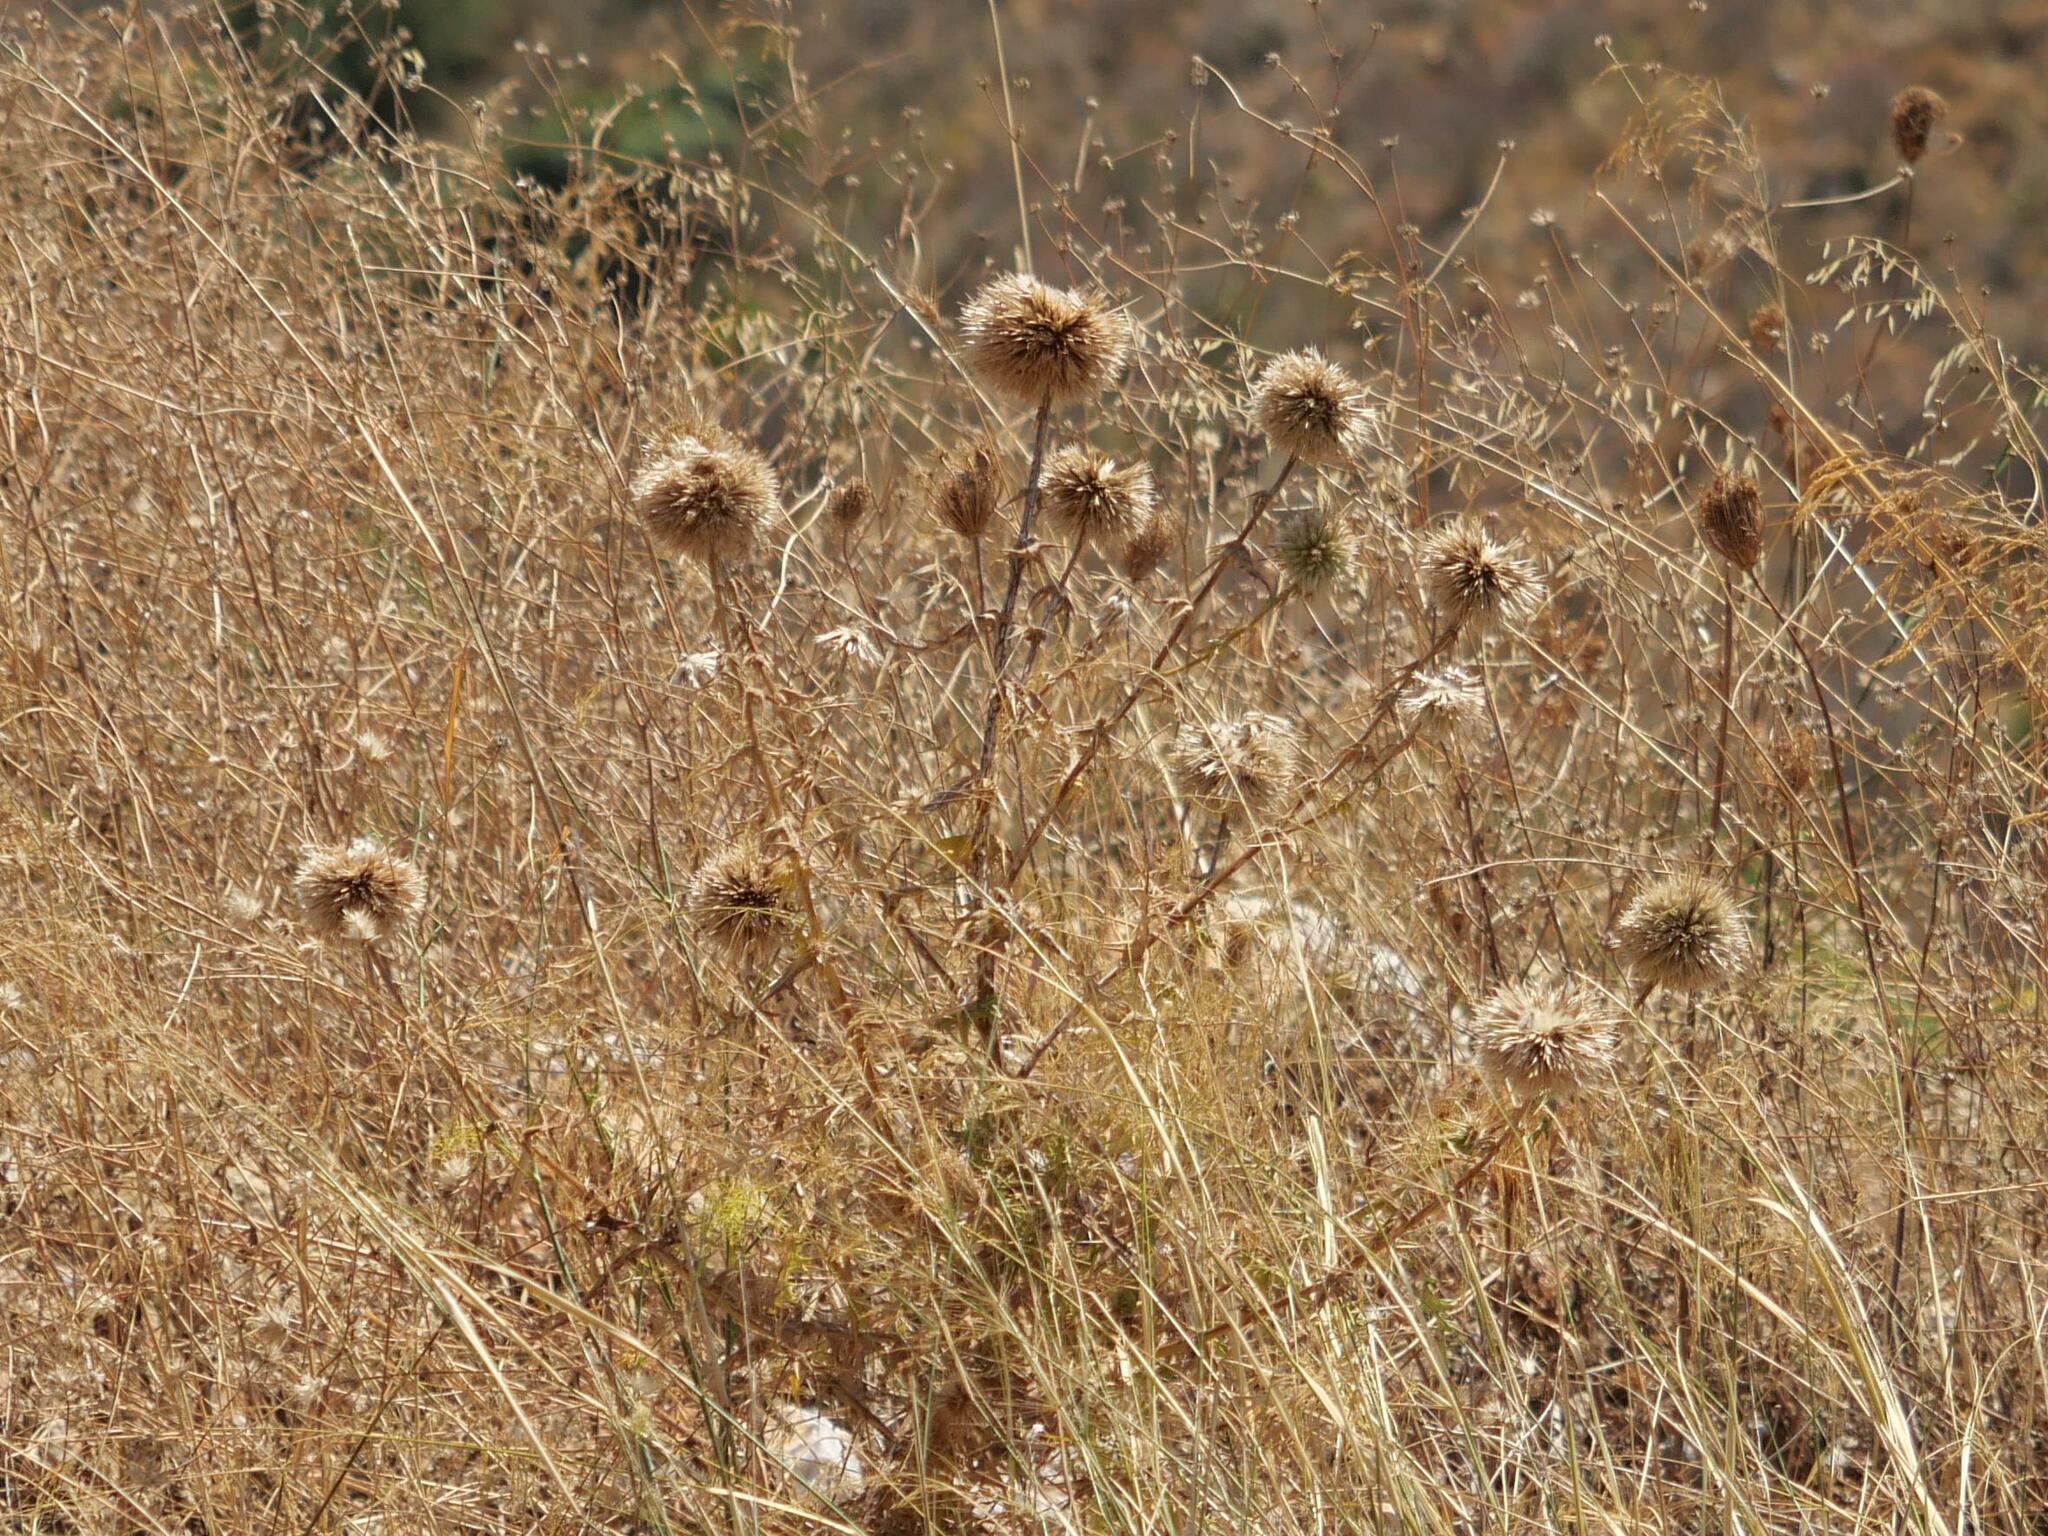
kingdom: Plantae
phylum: Tracheophyta
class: Magnoliopsida
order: Asterales
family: Asteraceae
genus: Echinops
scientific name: Echinops spinosissimus
